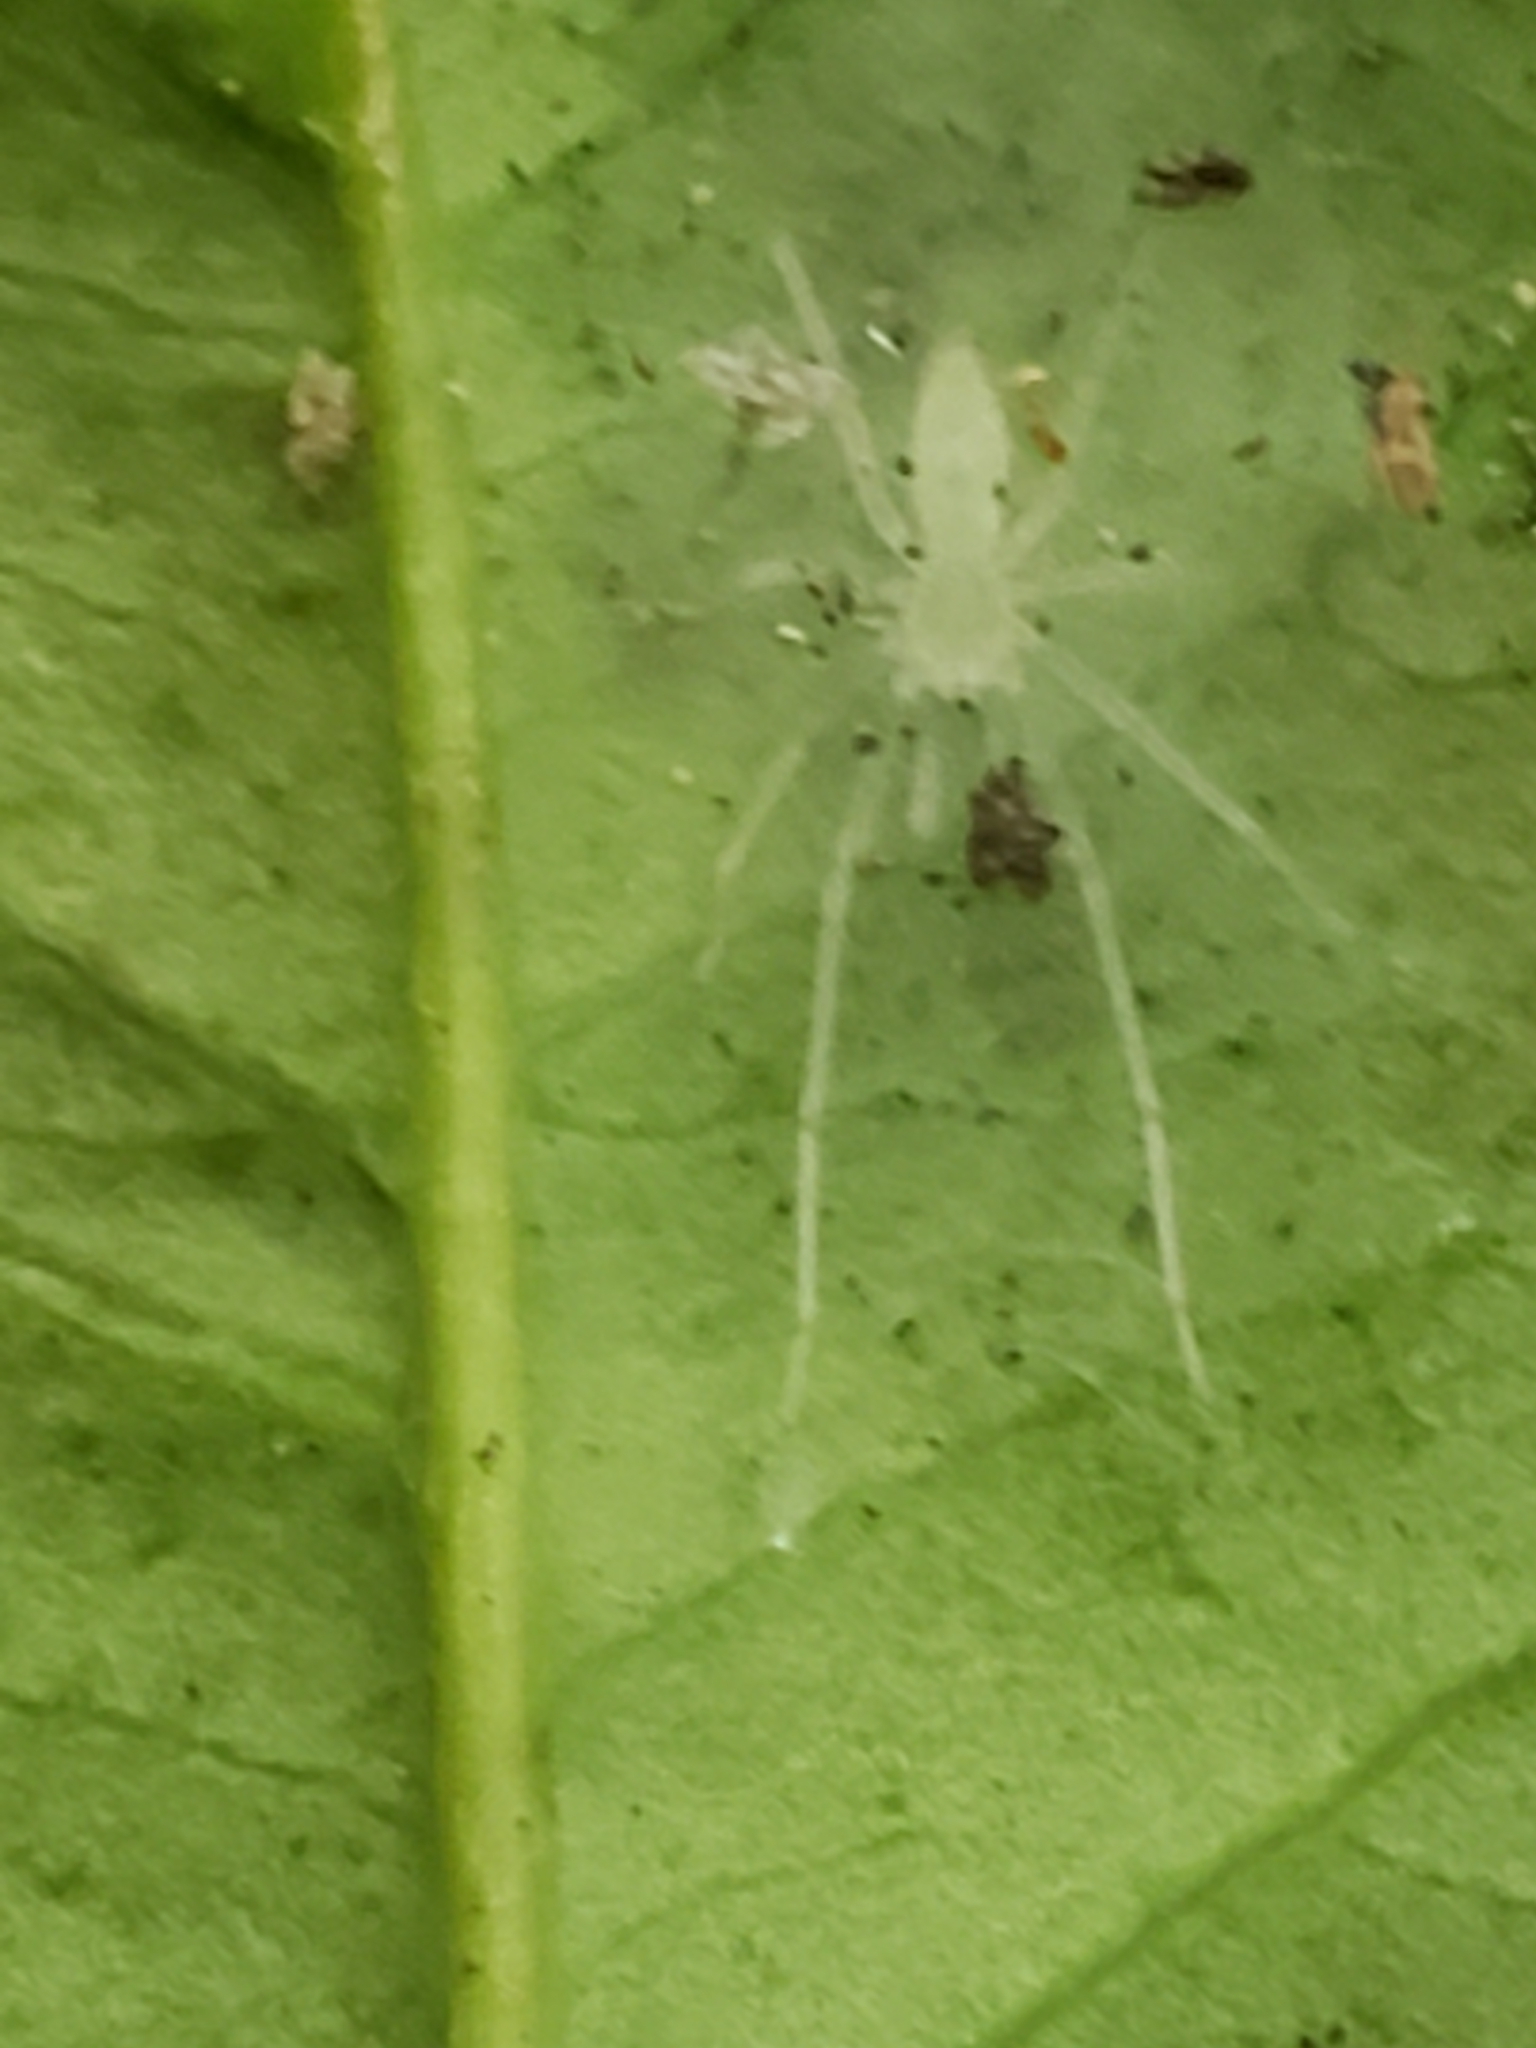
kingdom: Animalia
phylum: Arthropoda
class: Arachnida
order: Araneae
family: Anyphaenidae
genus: Wulfila
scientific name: Wulfila albens
